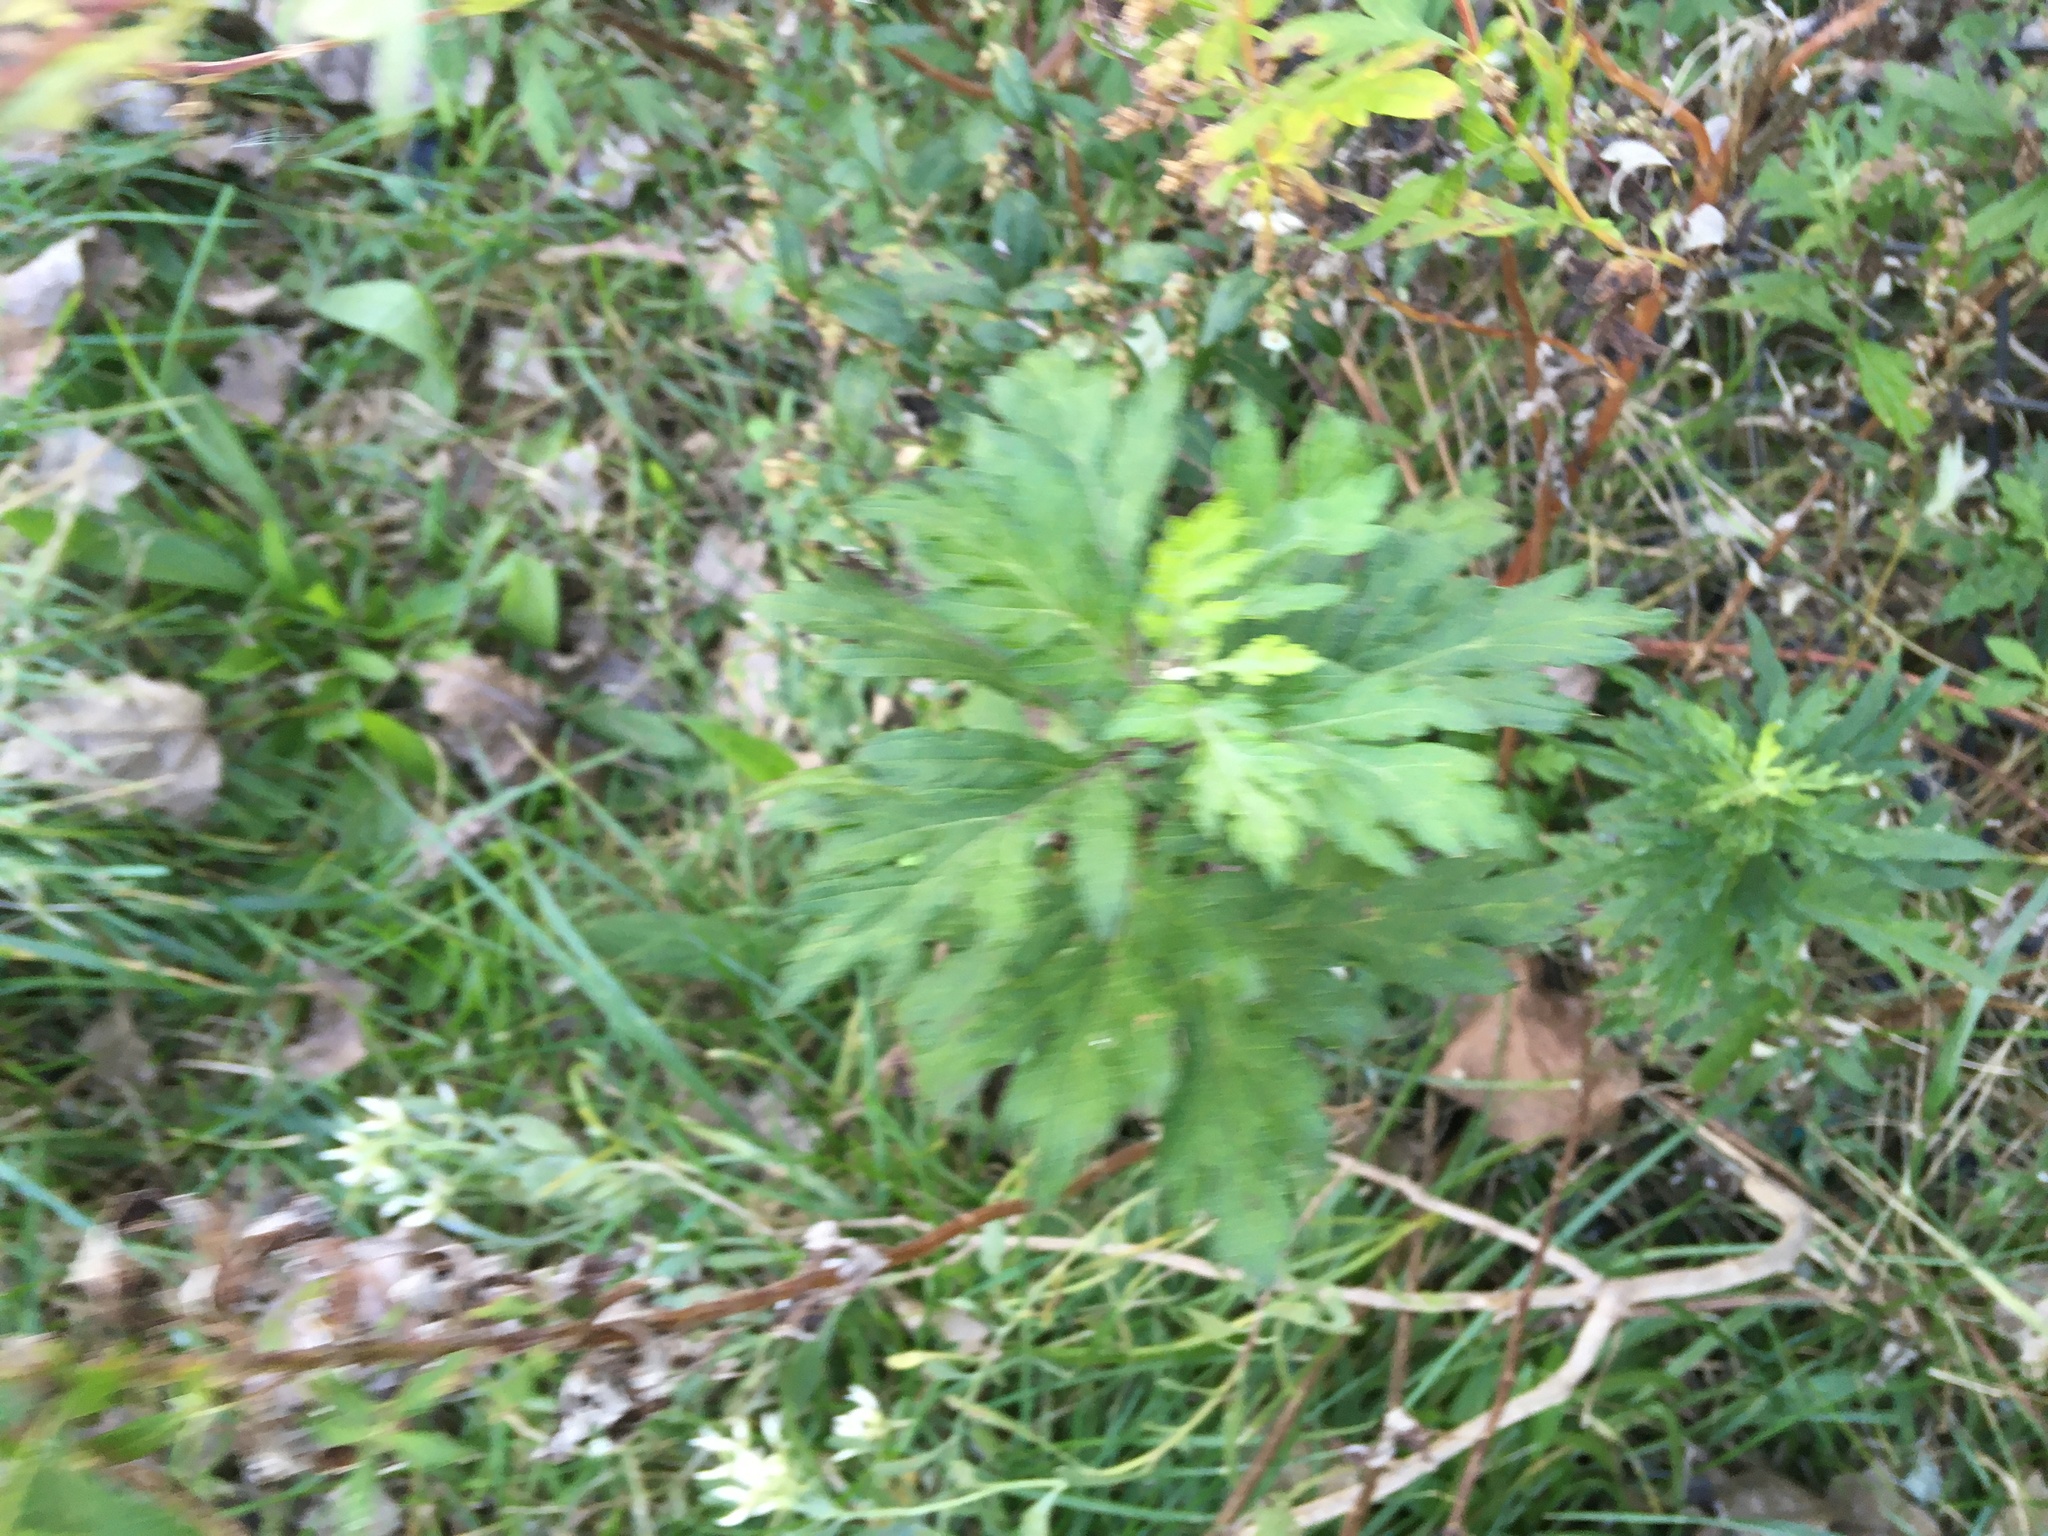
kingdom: Plantae
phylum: Tracheophyta
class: Magnoliopsida
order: Asterales
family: Asteraceae
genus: Artemisia
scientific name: Artemisia vulgaris
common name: Mugwort
